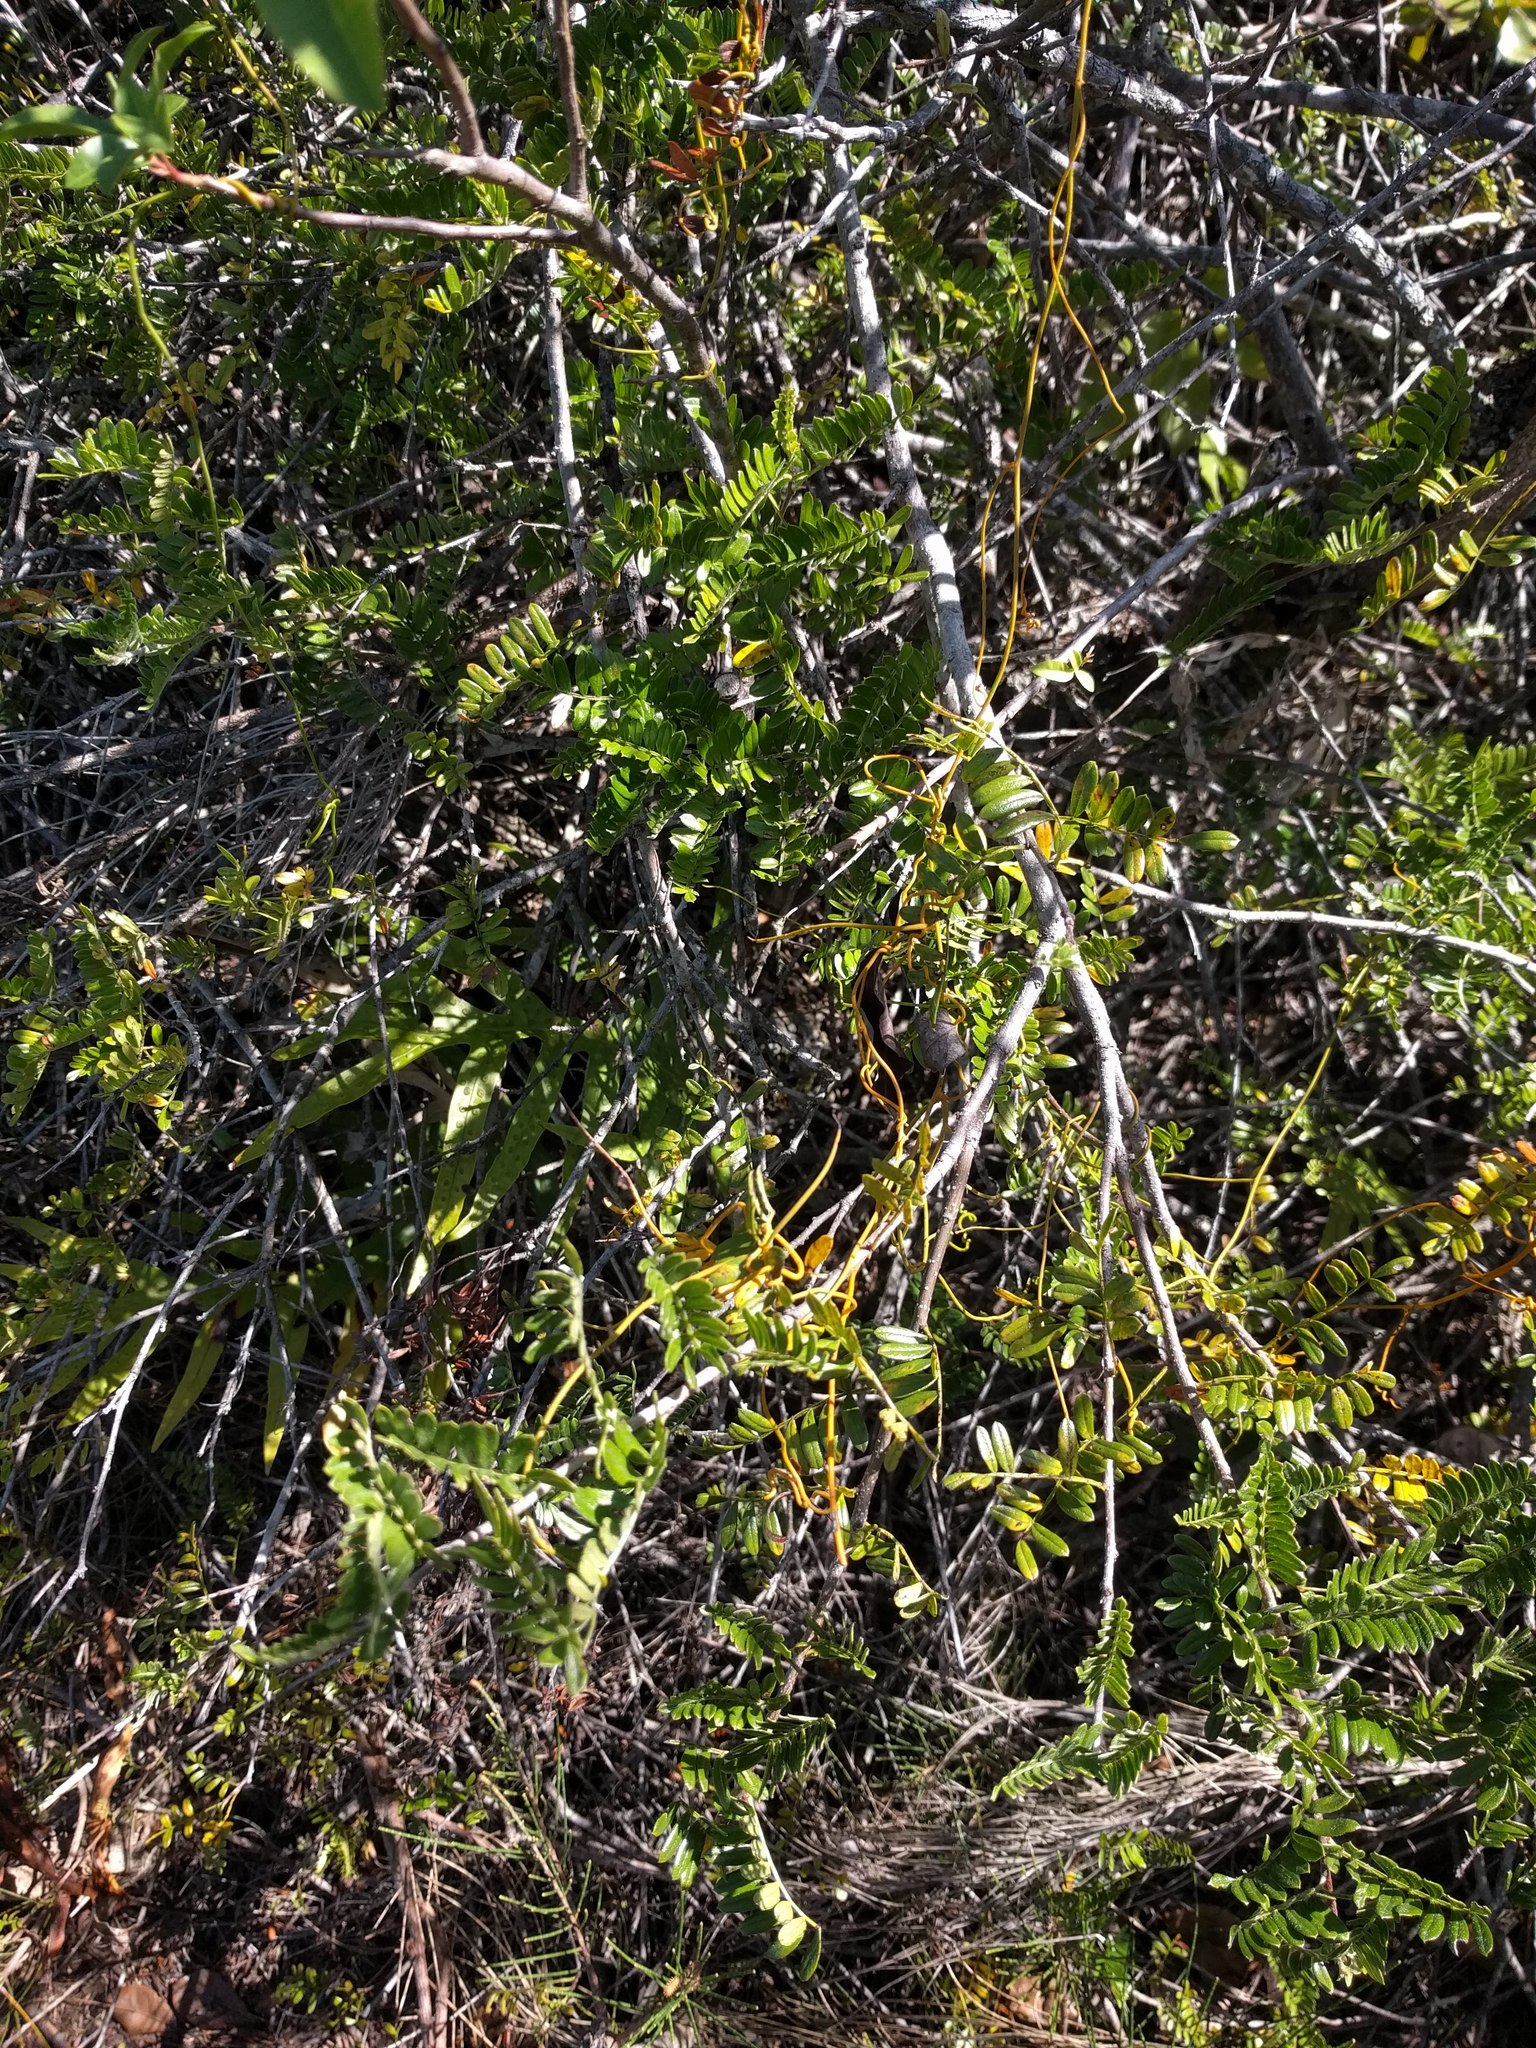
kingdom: Plantae
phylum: Tracheophyta
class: Magnoliopsida
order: Laurales
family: Lauraceae
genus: Cassytha
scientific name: Cassytha filiformis
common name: Dodder-laurel
